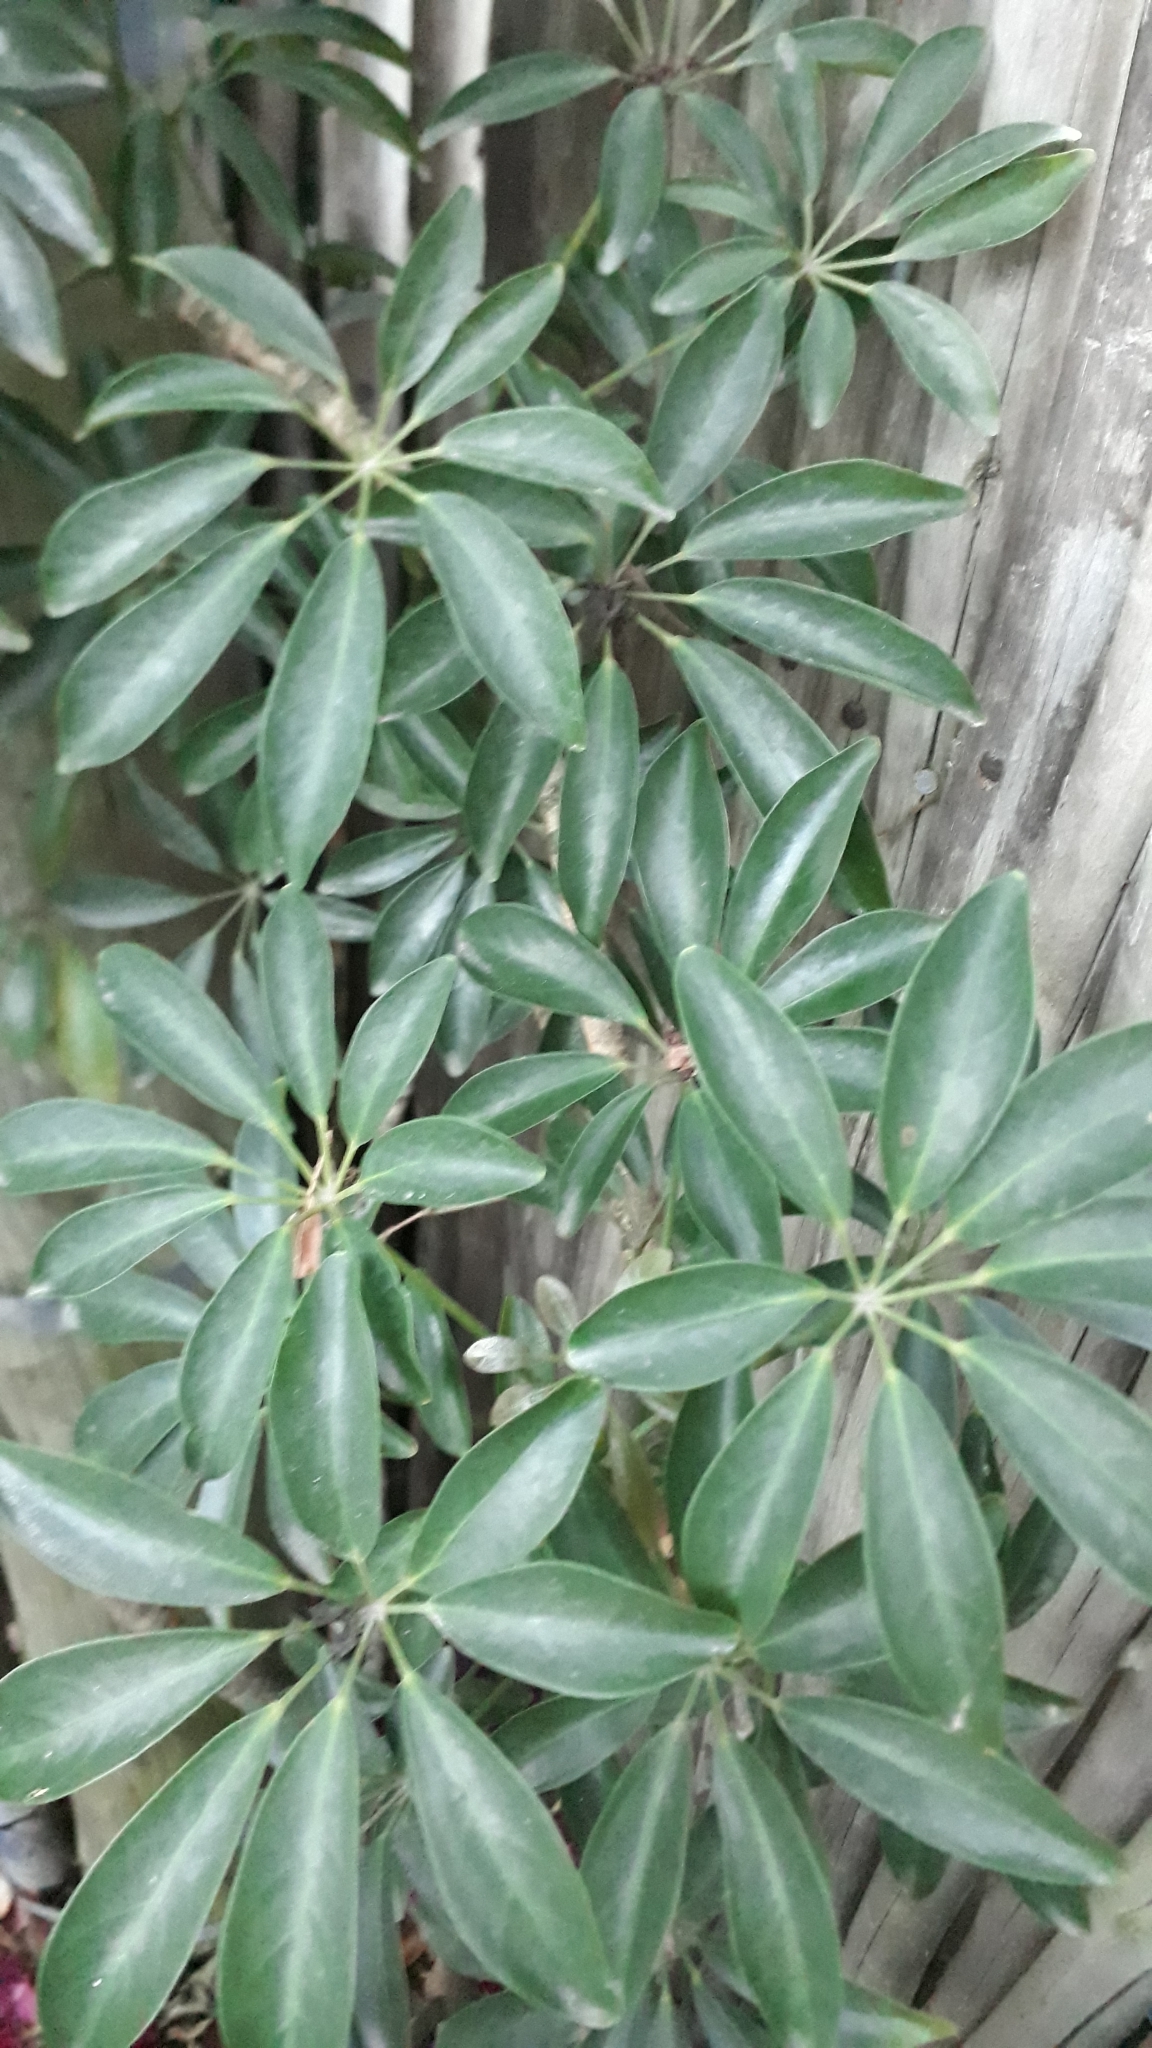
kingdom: Plantae
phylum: Tracheophyta
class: Magnoliopsida
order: Apiales
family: Araliaceae
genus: Heptapleurum
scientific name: Heptapleurum arboricola
